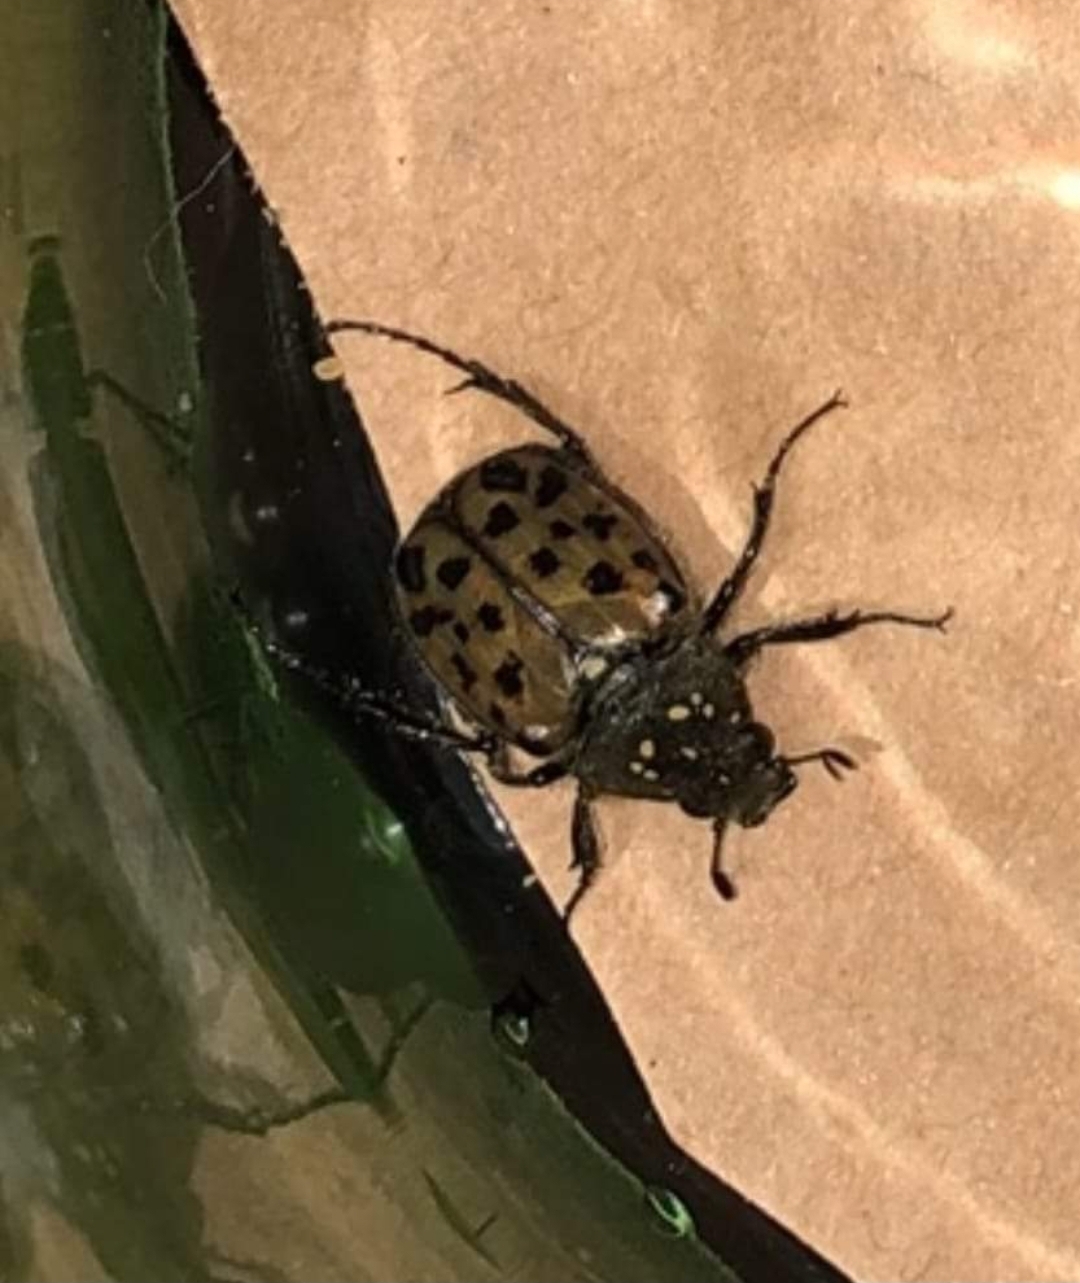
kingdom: Animalia
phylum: Arthropoda
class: Insecta
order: Coleoptera
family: Scarabaeidae
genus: Gnorimella
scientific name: Gnorimella maculosa
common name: Maculate flower beetle
